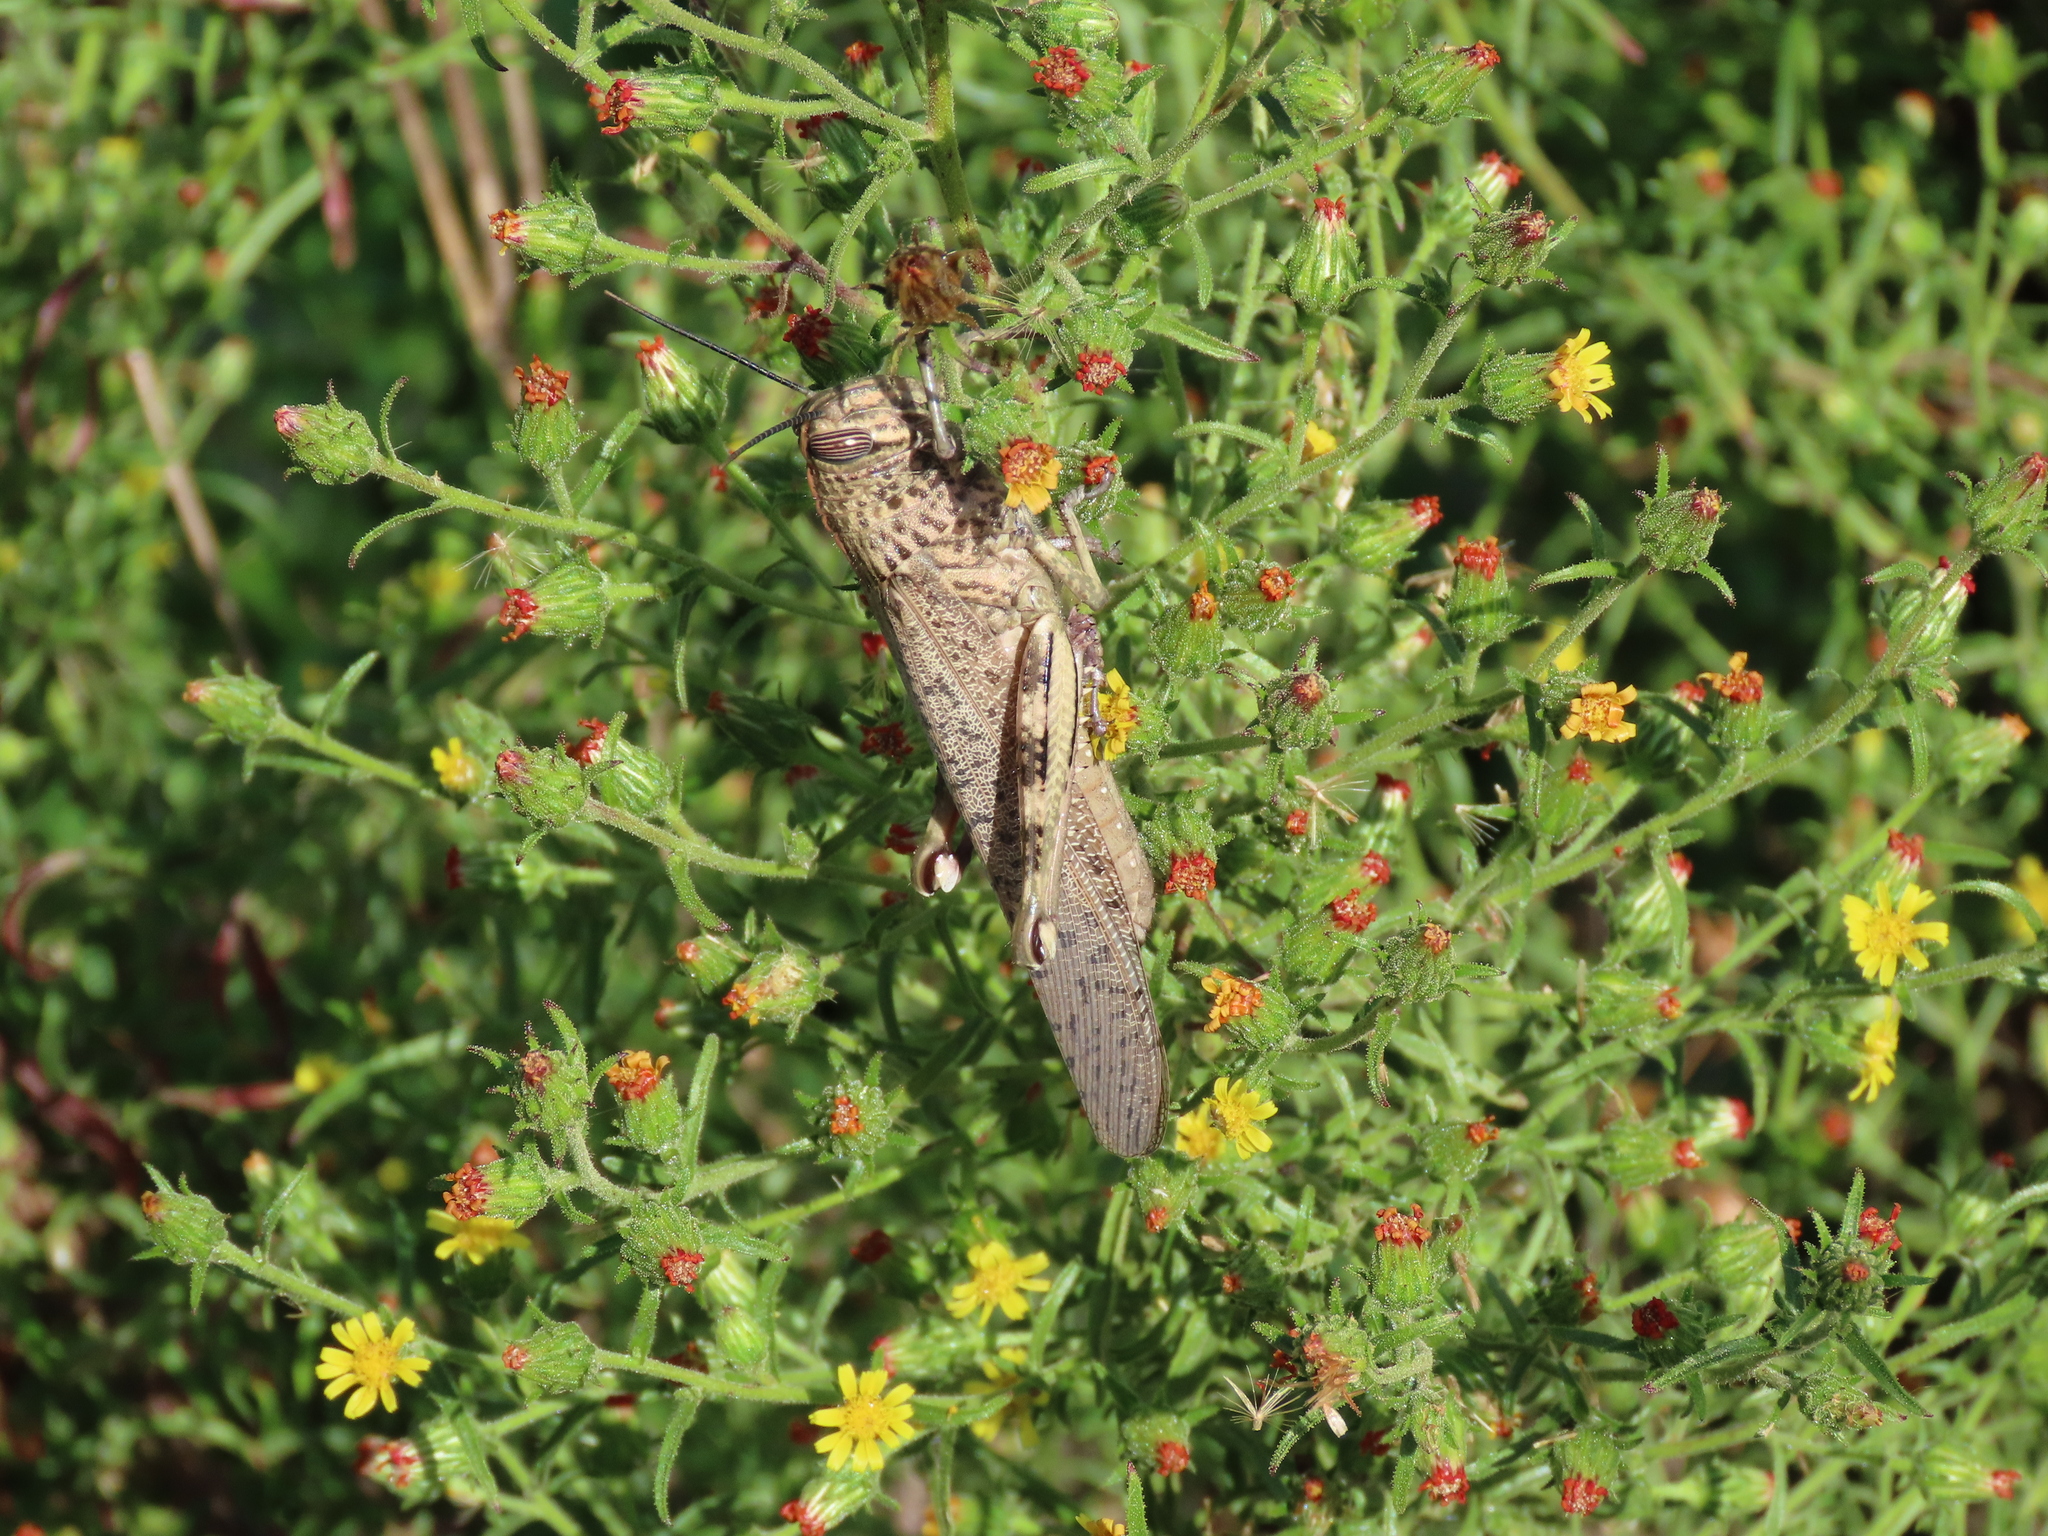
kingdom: Animalia
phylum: Arthropoda
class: Insecta
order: Orthoptera
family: Acrididae
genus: Anacridium
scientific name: Anacridium aegyptium
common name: Egyptian grasshopper
